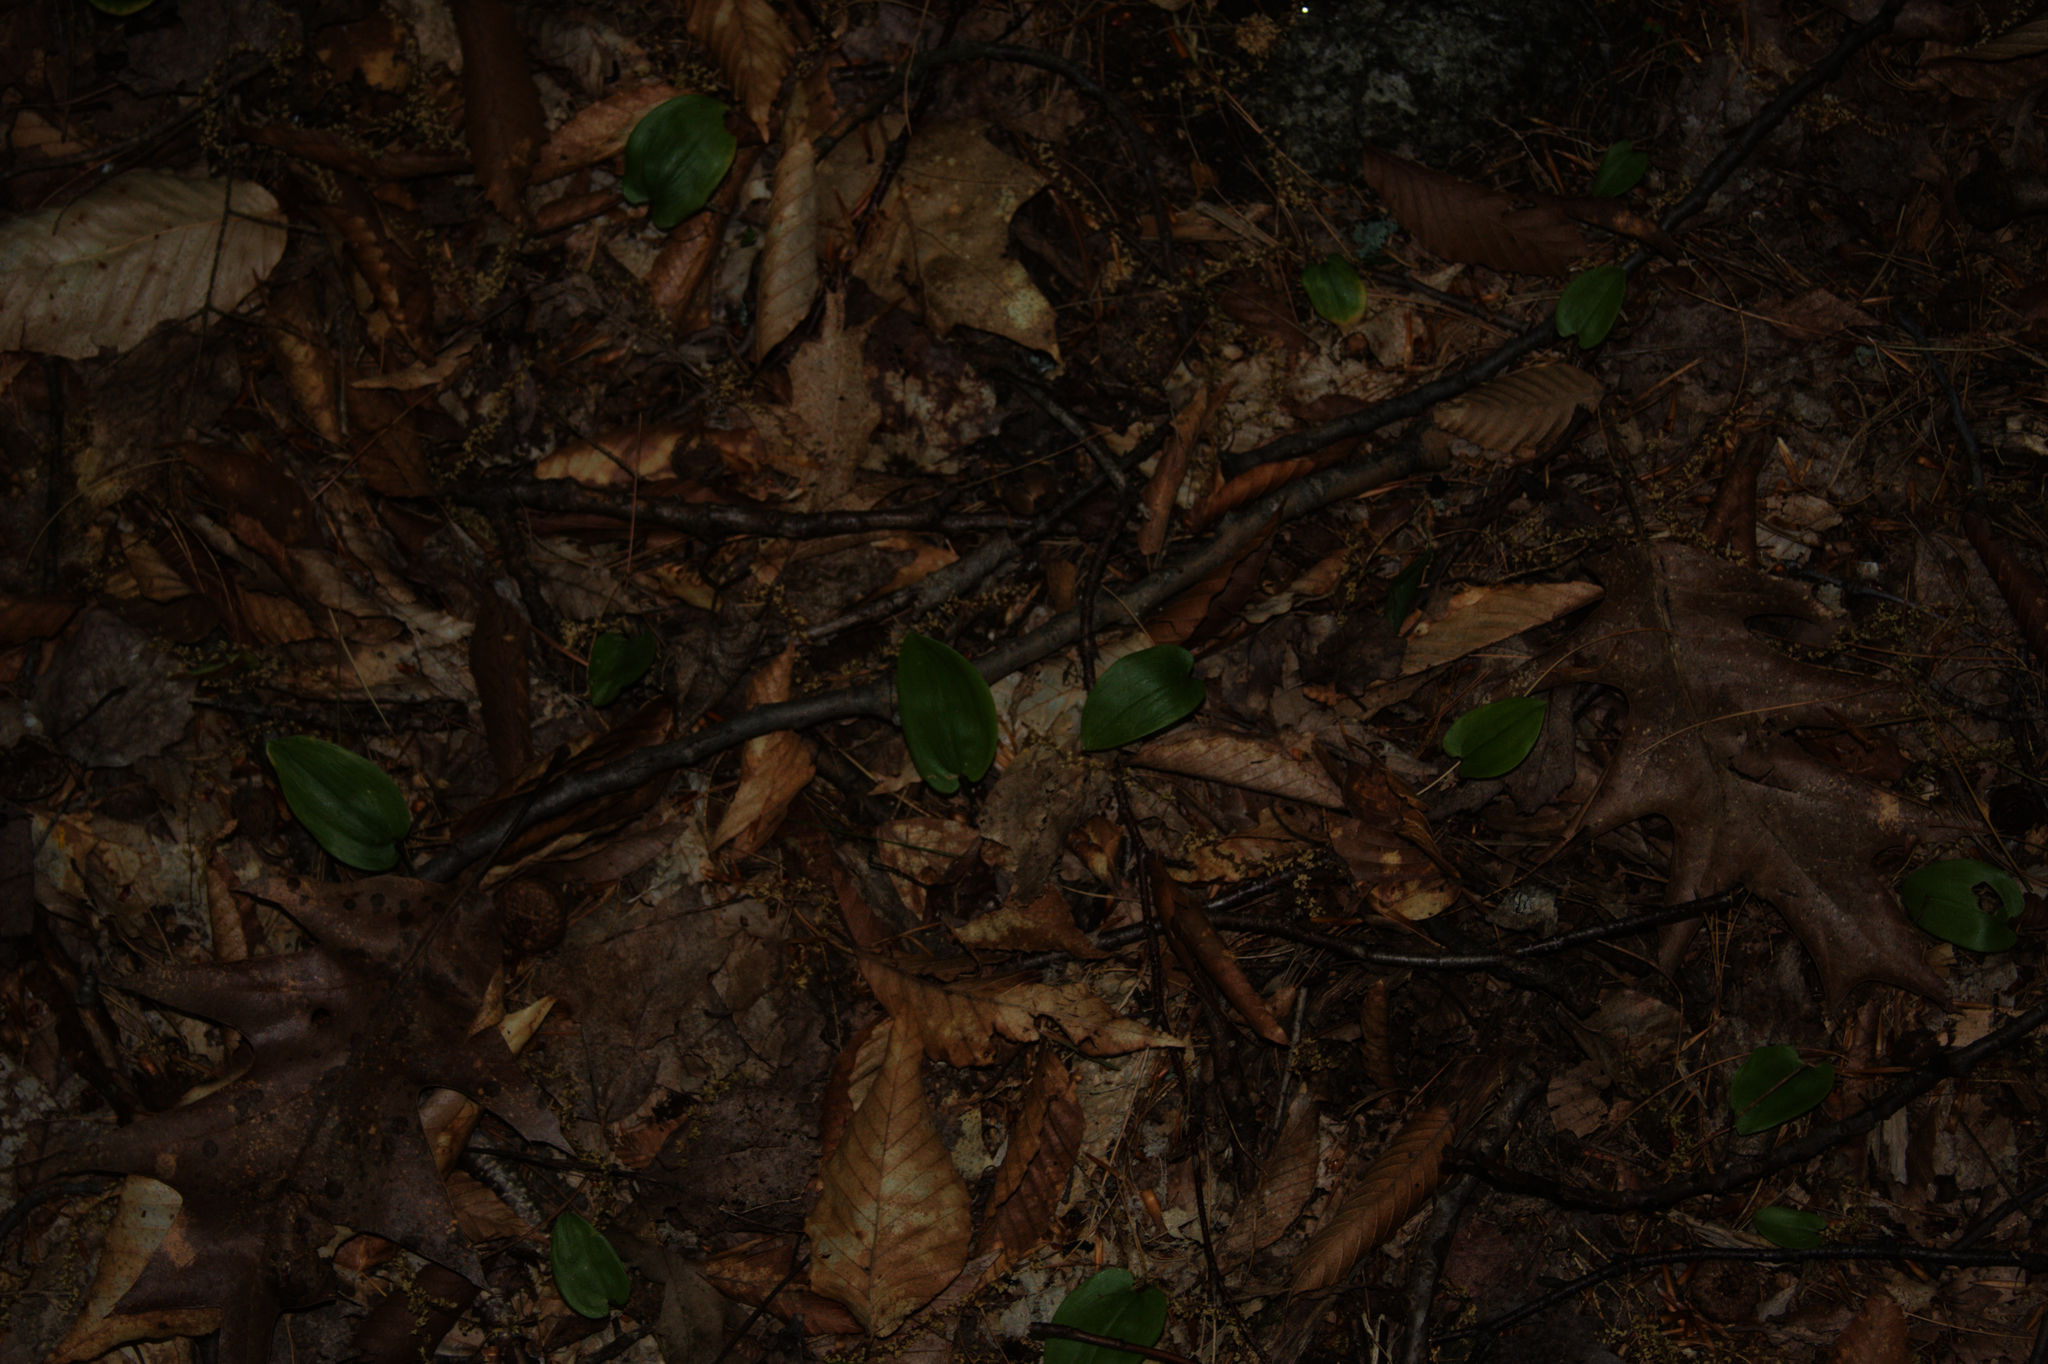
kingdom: Plantae
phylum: Tracheophyta
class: Liliopsida
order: Asparagales
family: Asparagaceae
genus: Maianthemum
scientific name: Maianthemum canadense
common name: False lily-of-the-valley
